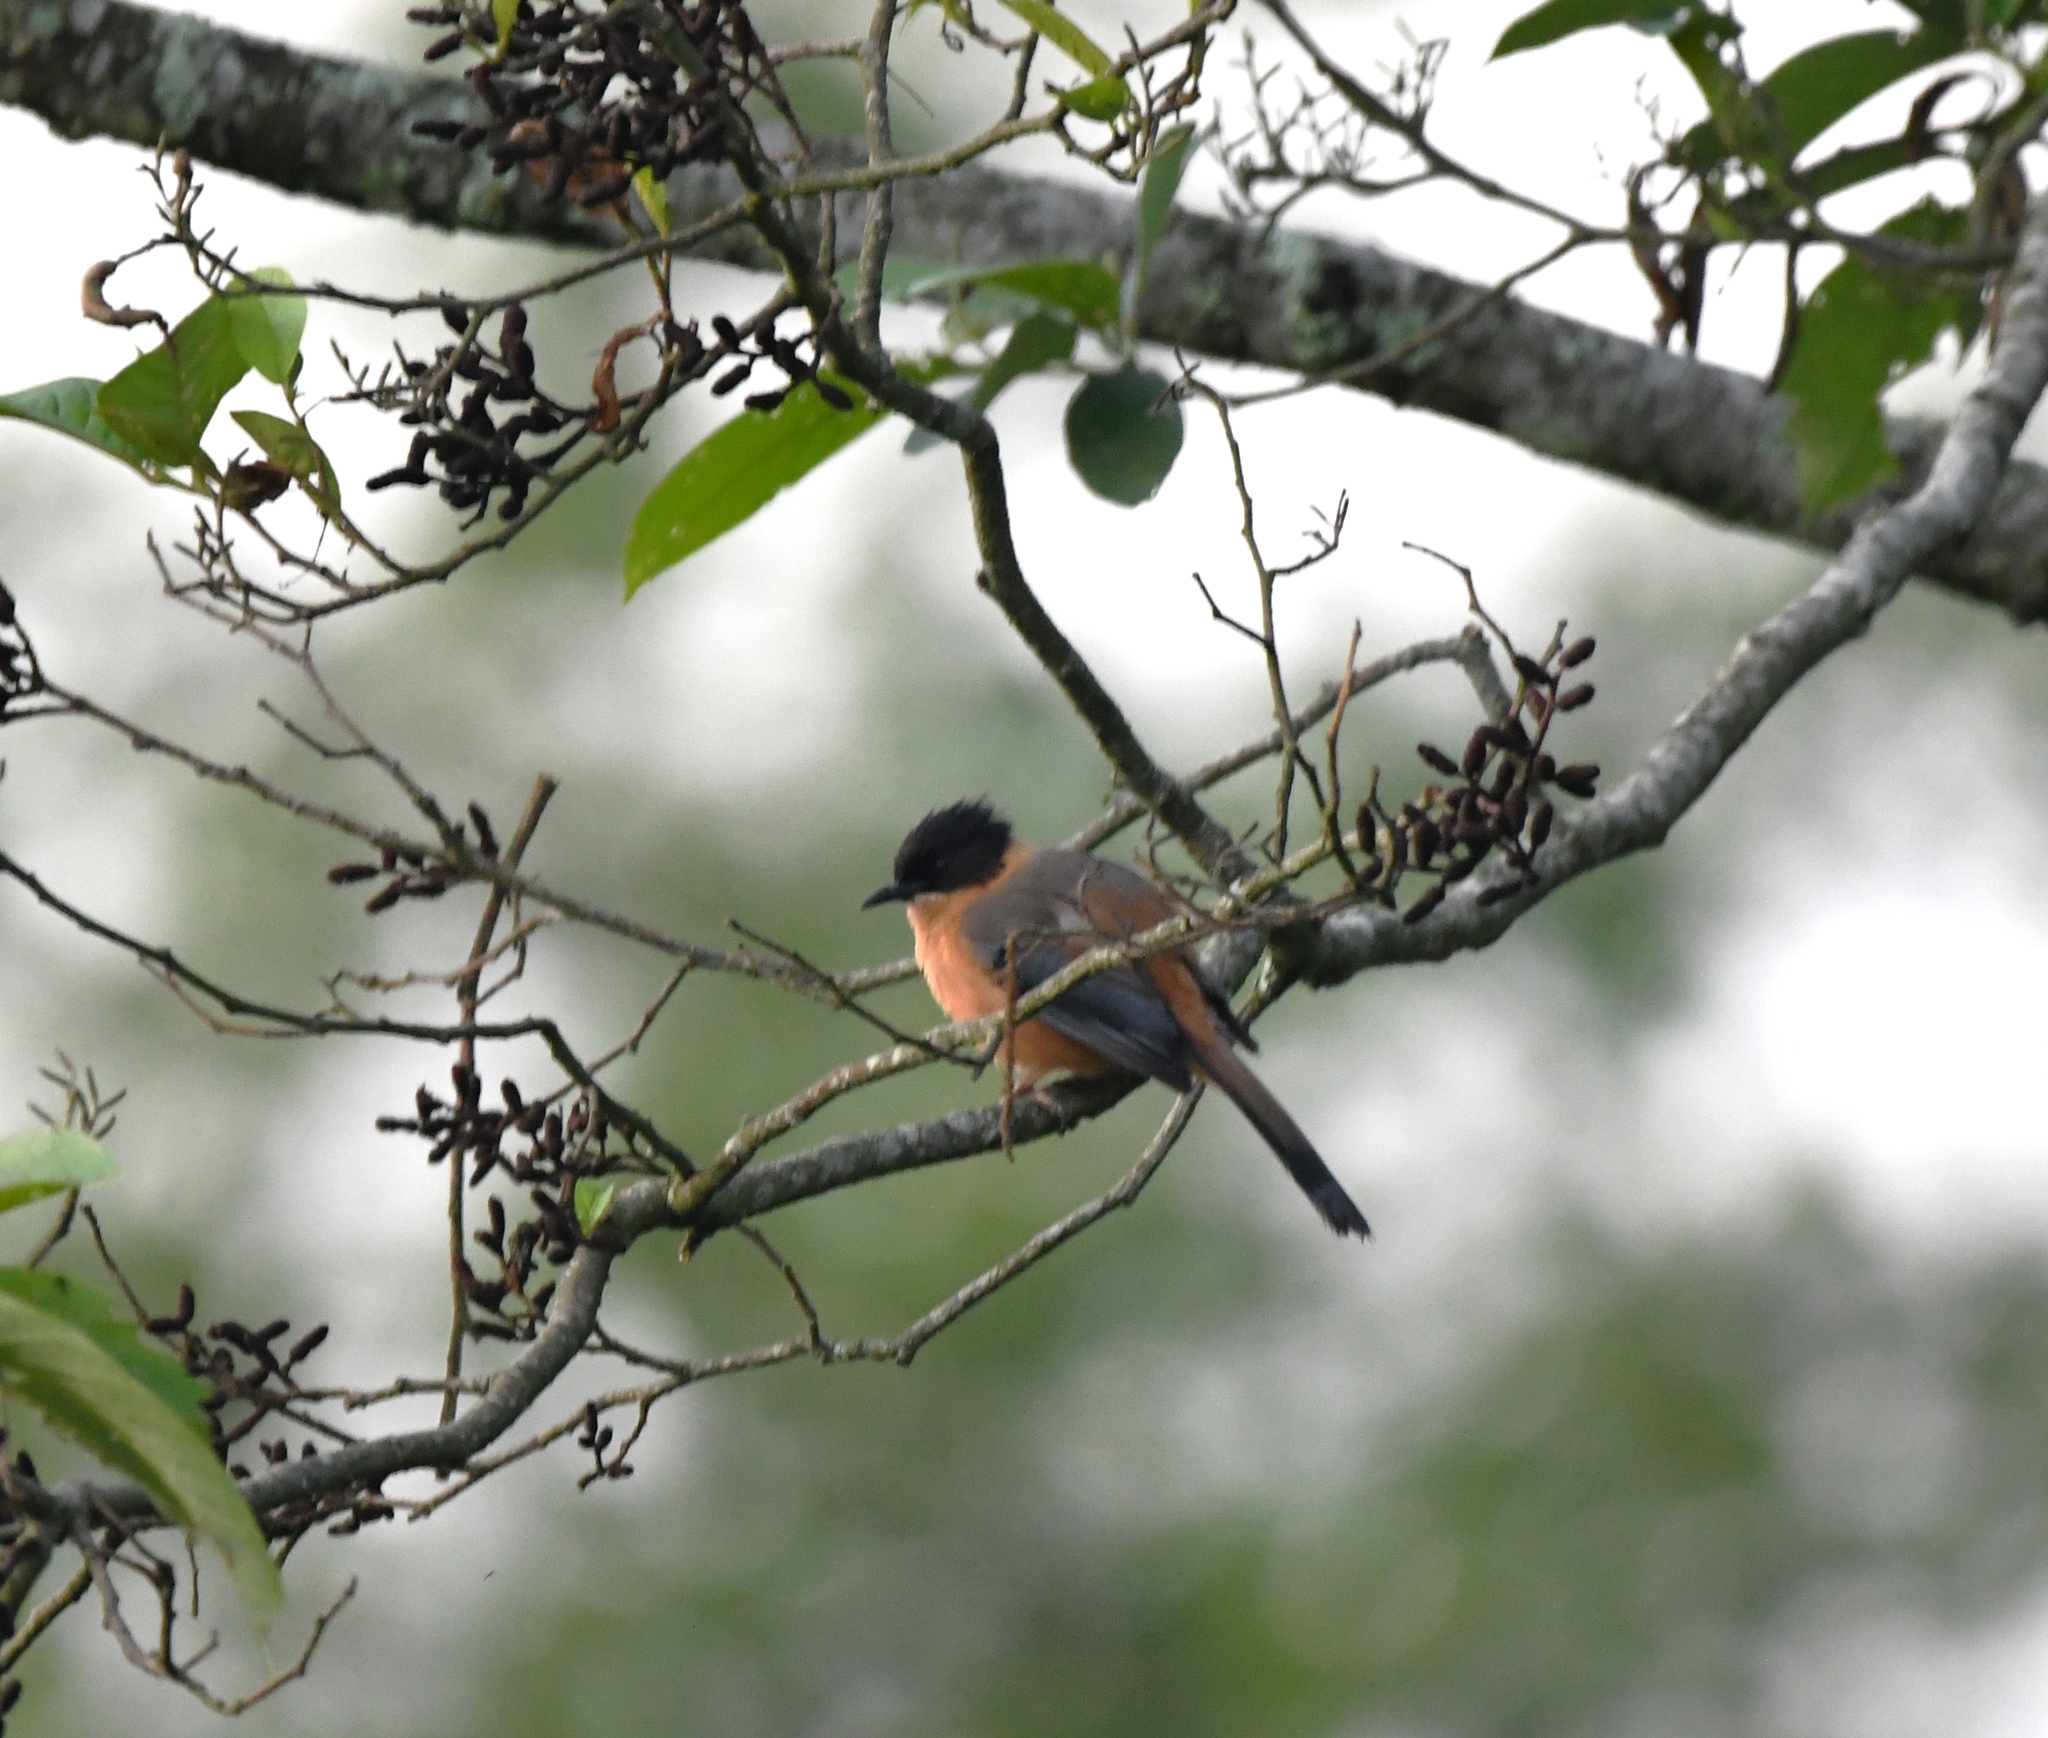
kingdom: Animalia
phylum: Chordata
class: Aves
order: Passeriformes
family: Leiothrichidae
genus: Heterophasia
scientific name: Heterophasia capistrata
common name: Rufous sibia
